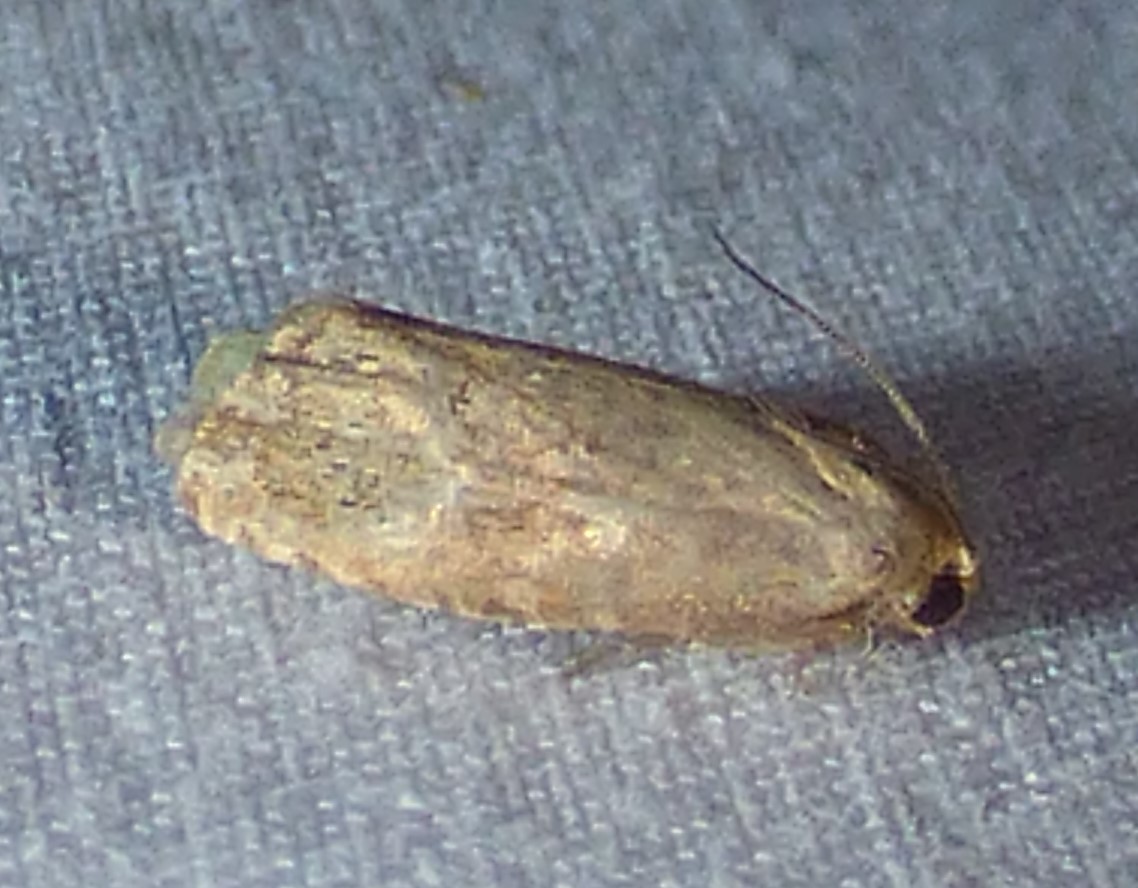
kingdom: Animalia
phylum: Arthropoda
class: Insecta
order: Lepidoptera
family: Tortricidae
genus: Cydia
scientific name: Cydia latiferreana
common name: Filbertworm moth
